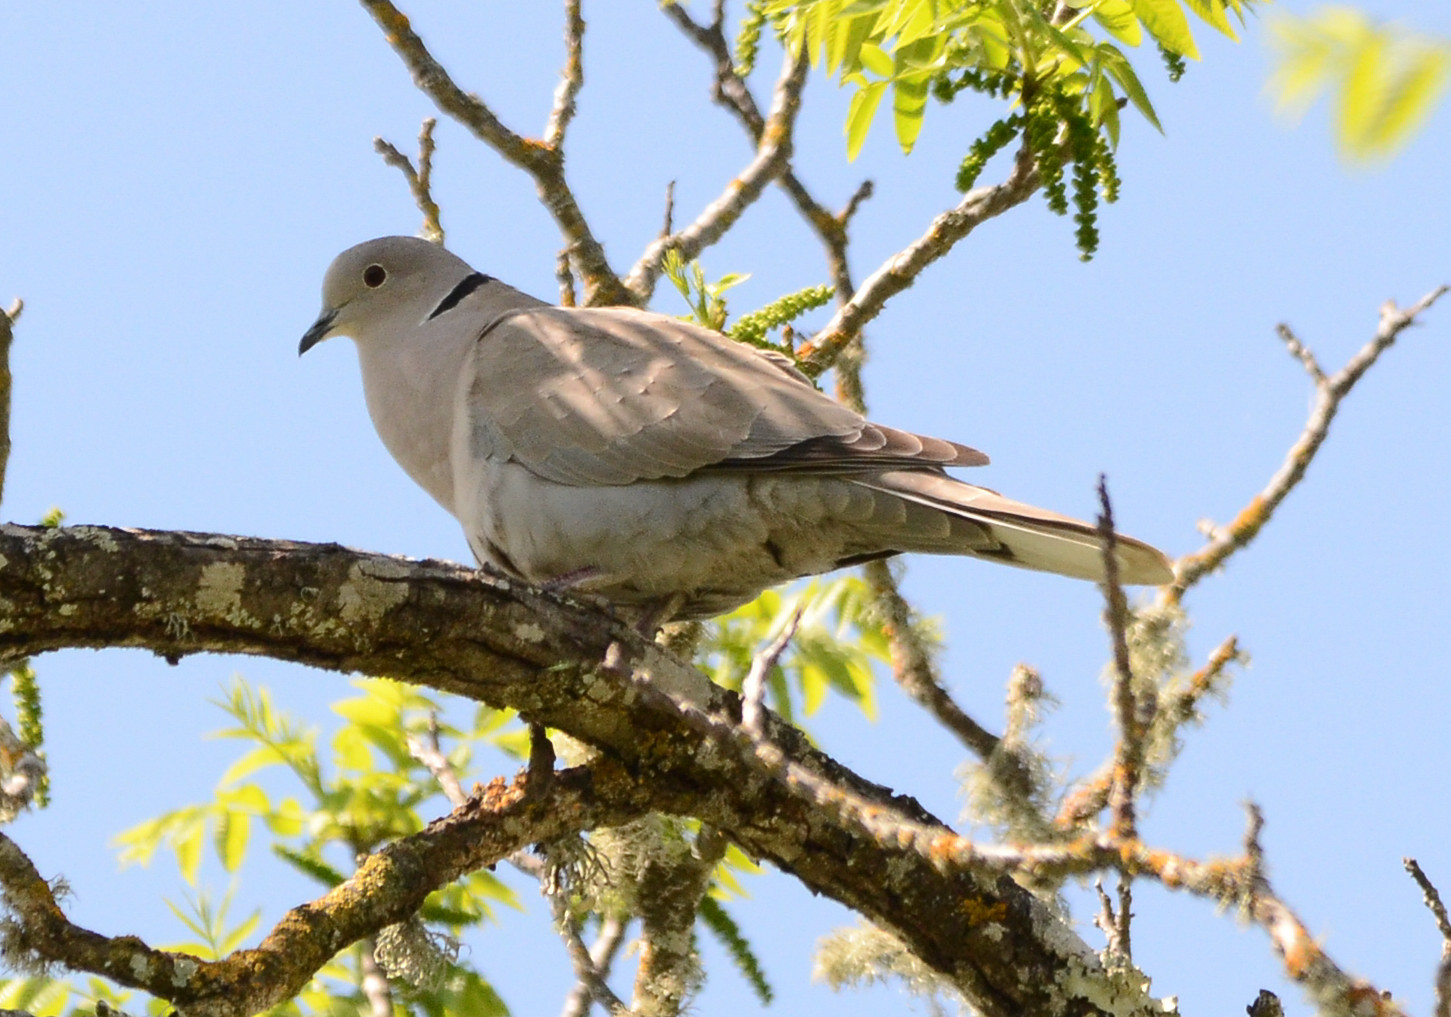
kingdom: Animalia
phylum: Chordata
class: Aves
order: Columbiformes
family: Columbidae
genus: Streptopelia
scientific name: Streptopelia decaocto
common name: Eurasian collared dove
